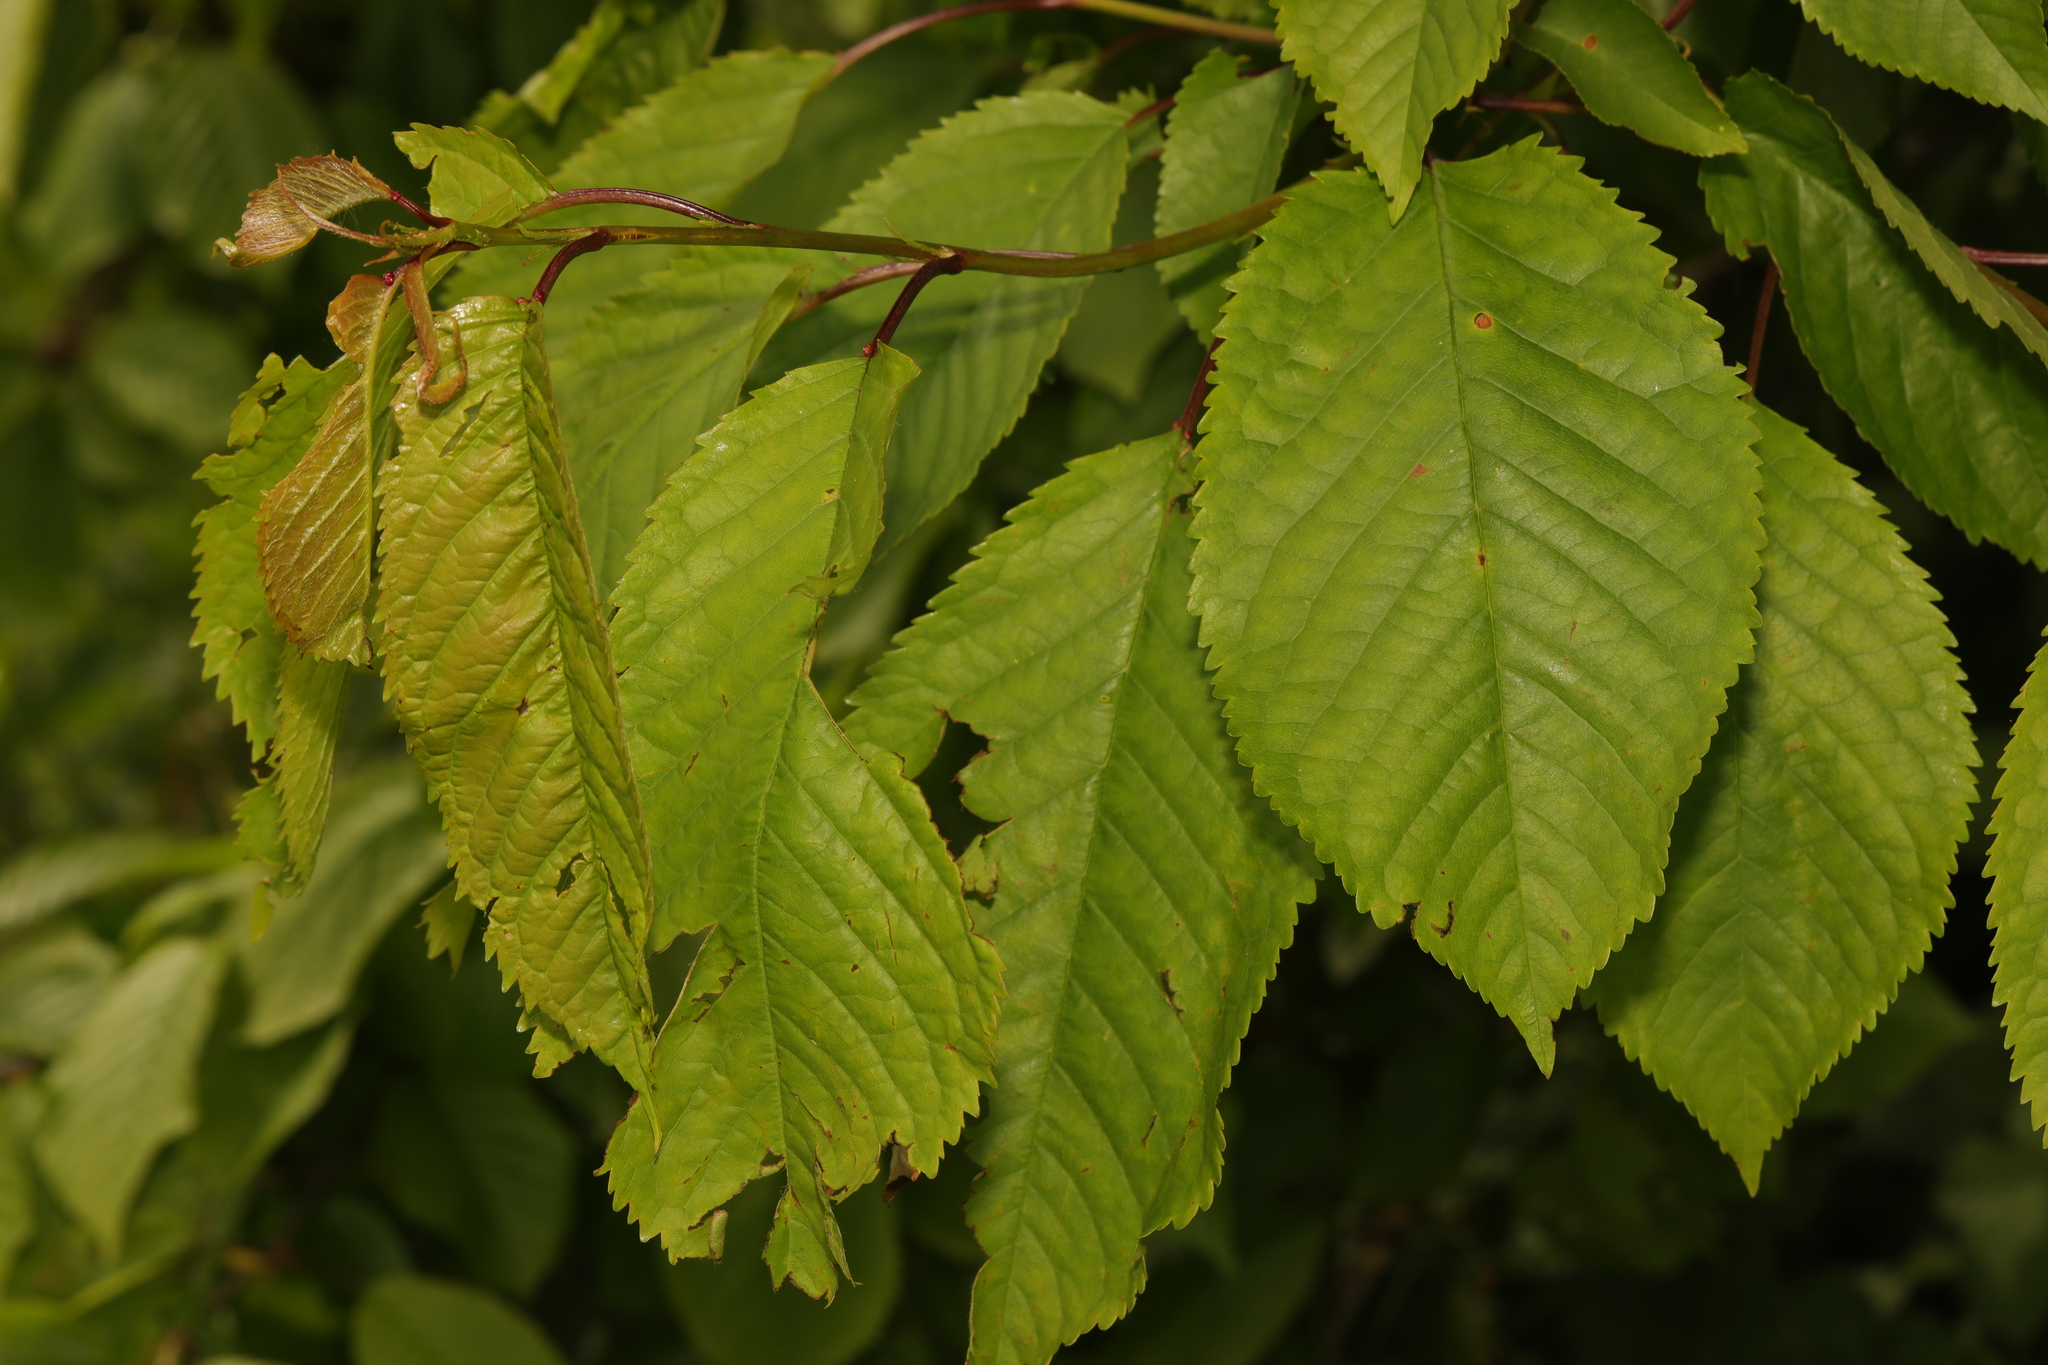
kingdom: Plantae
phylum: Tracheophyta
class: Magnoliopsida
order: Rosales
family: Rosaceae
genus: Prunus
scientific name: Prunus avium
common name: Sweet cherry
